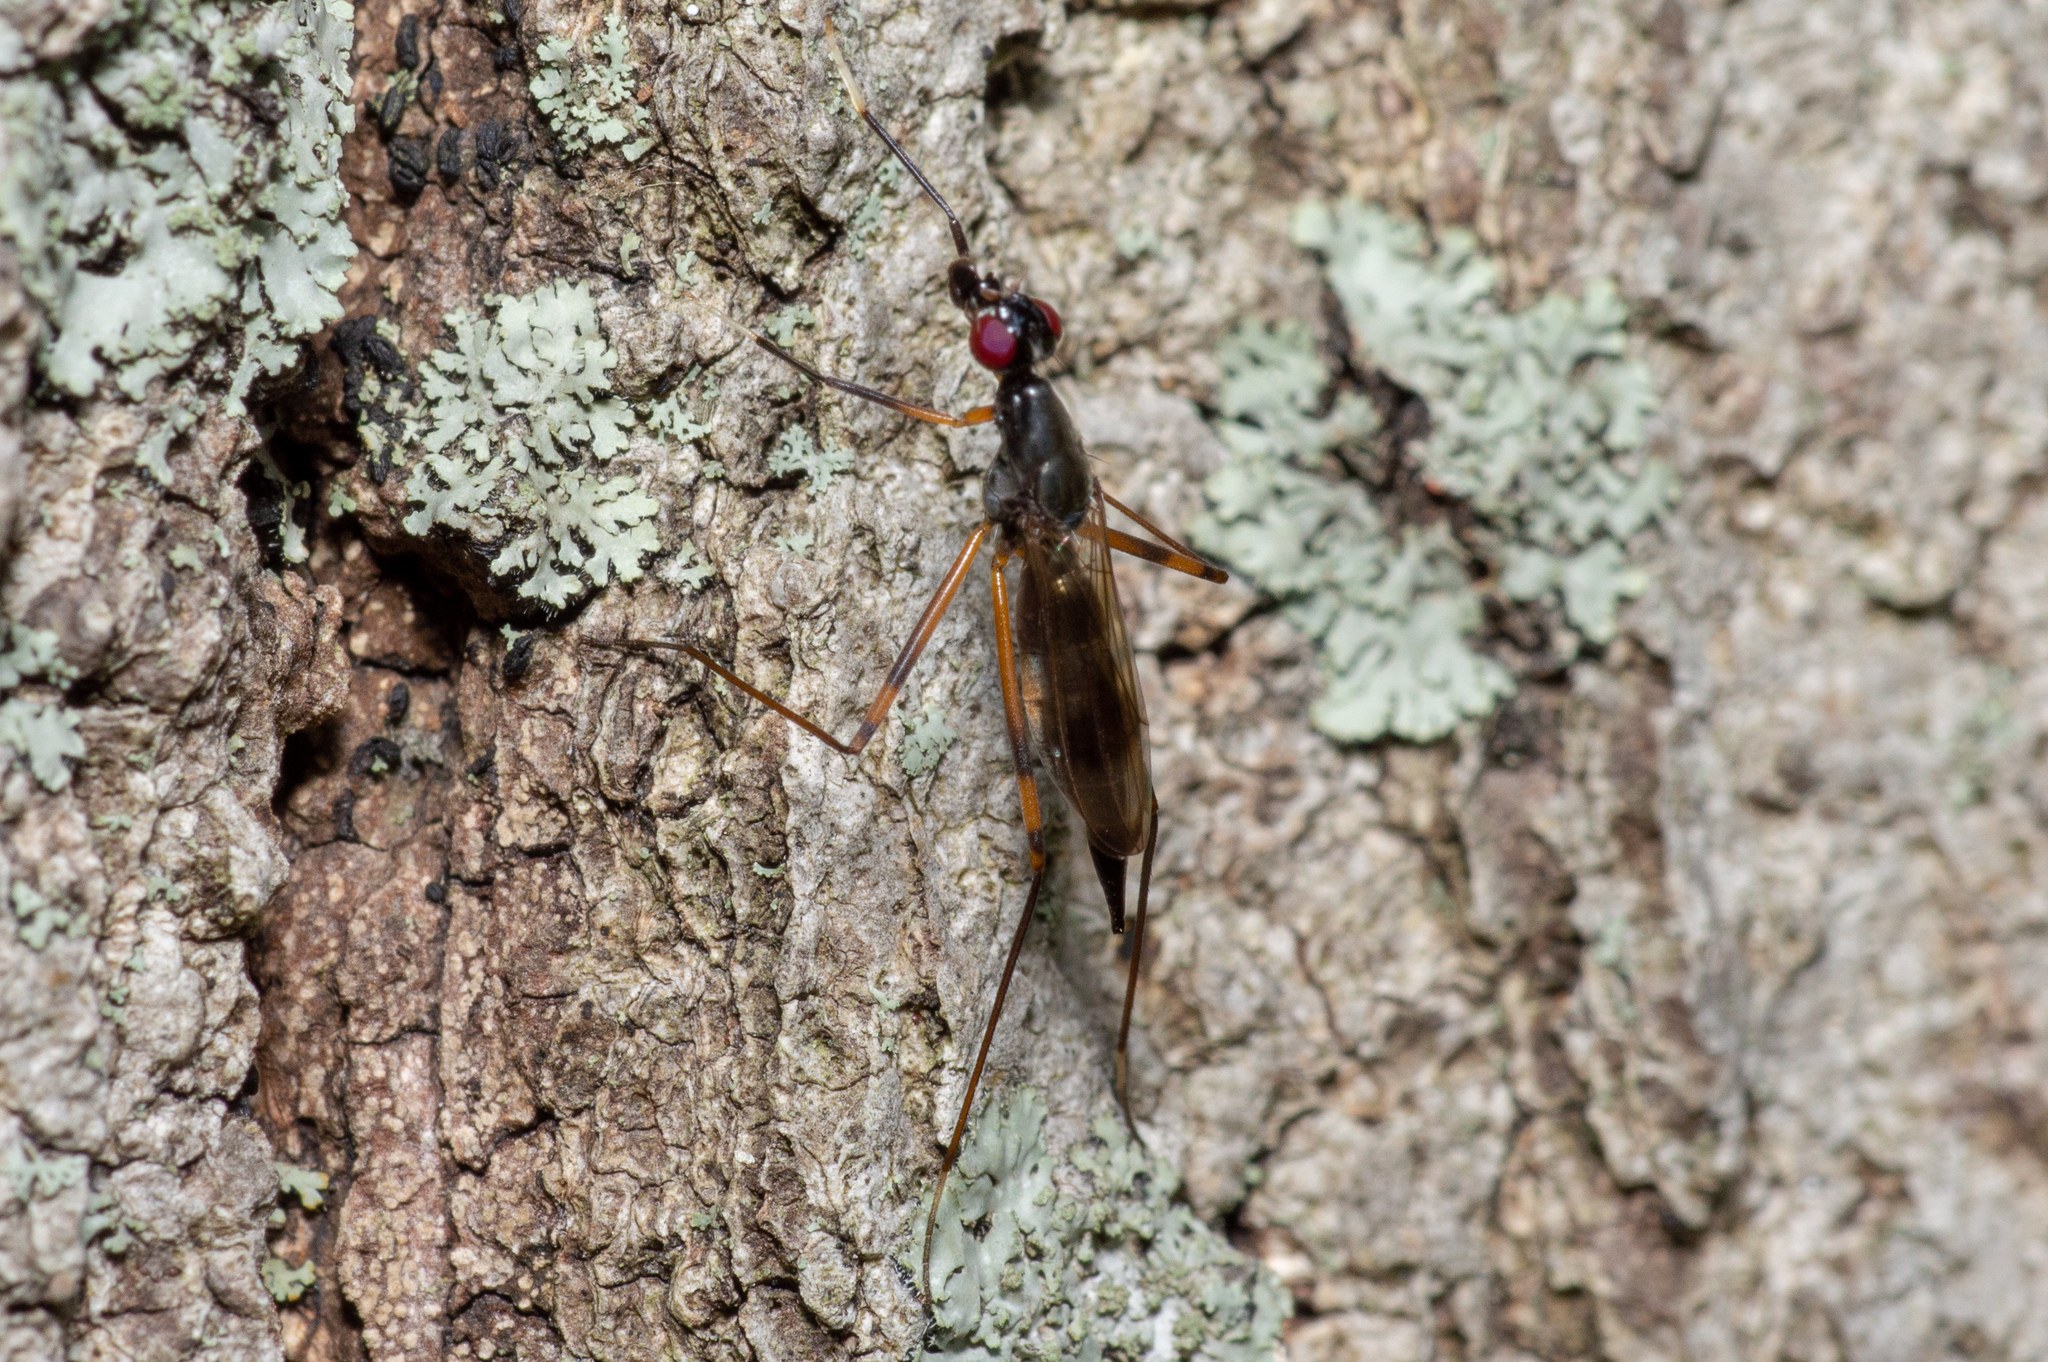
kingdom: Animalia
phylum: Arthropoda
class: Insecta
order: Diptera
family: Micropezidae
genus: Rainieria
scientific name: Rainieria antennaepes
